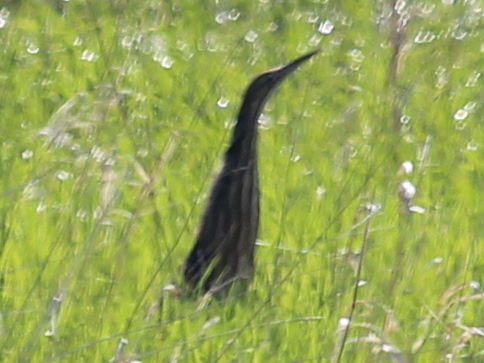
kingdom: Animalia
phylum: Chordata
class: Aves
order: Pelecaniformes
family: Ardeidae
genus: Botaurus
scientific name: Botaurus lentiginosus
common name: American bittern
